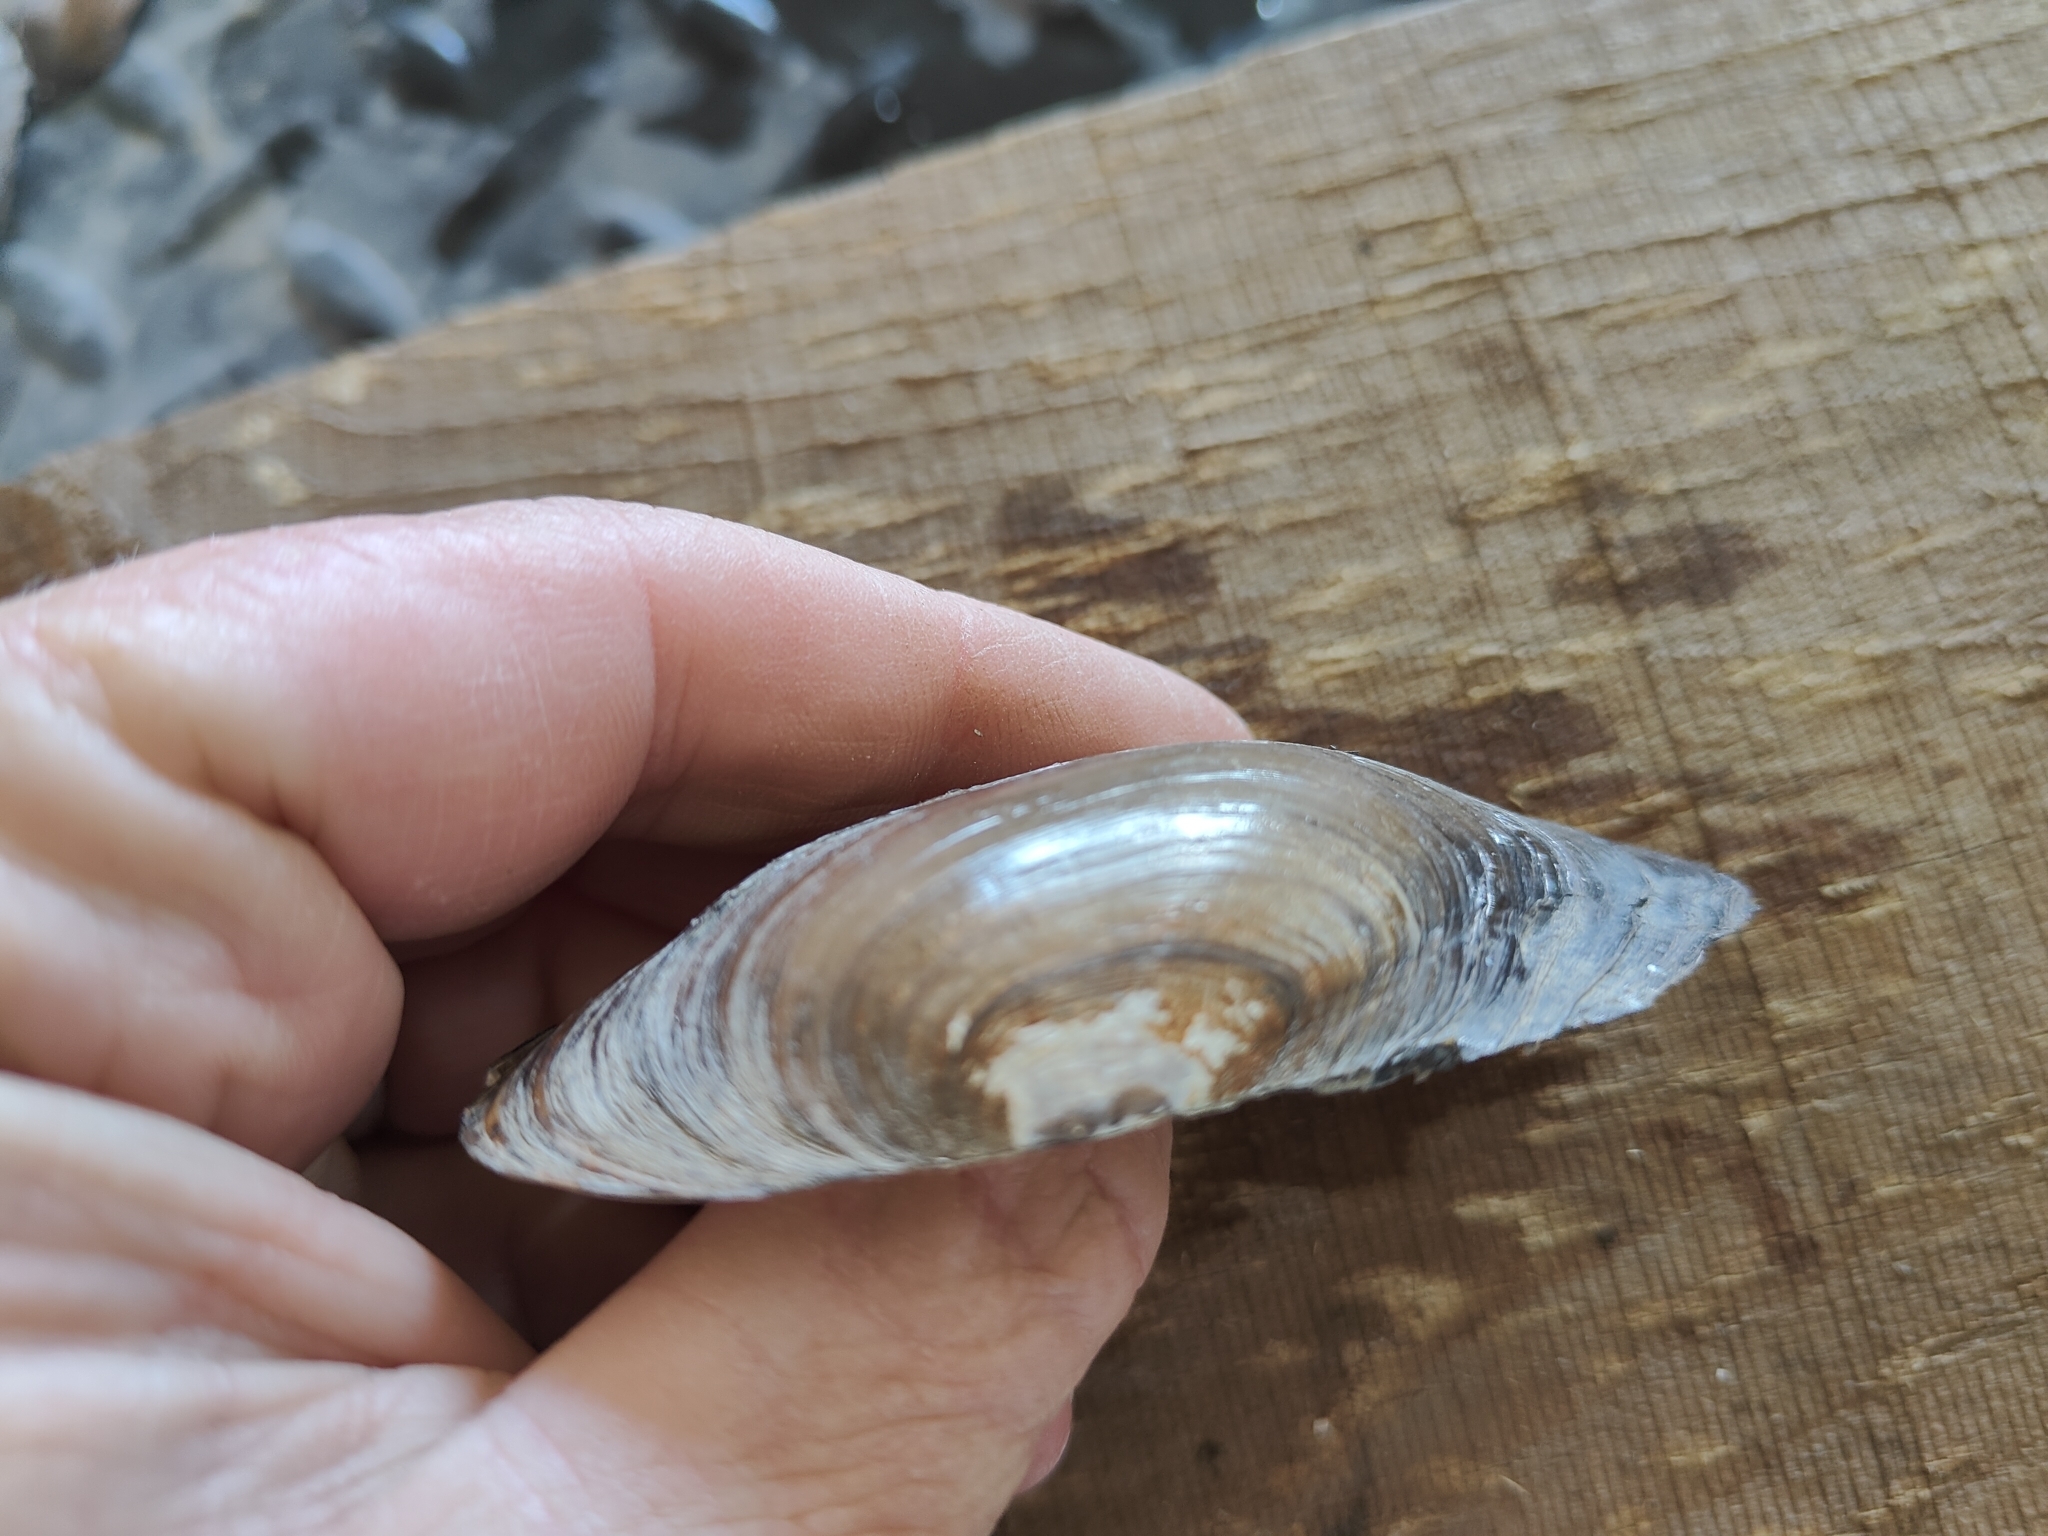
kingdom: Animalia
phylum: Mollusca
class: Bivalvia
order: Unionida
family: Unionidae
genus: Utterbackia
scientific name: Utterbackia imbecillis
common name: Paper pondshell
